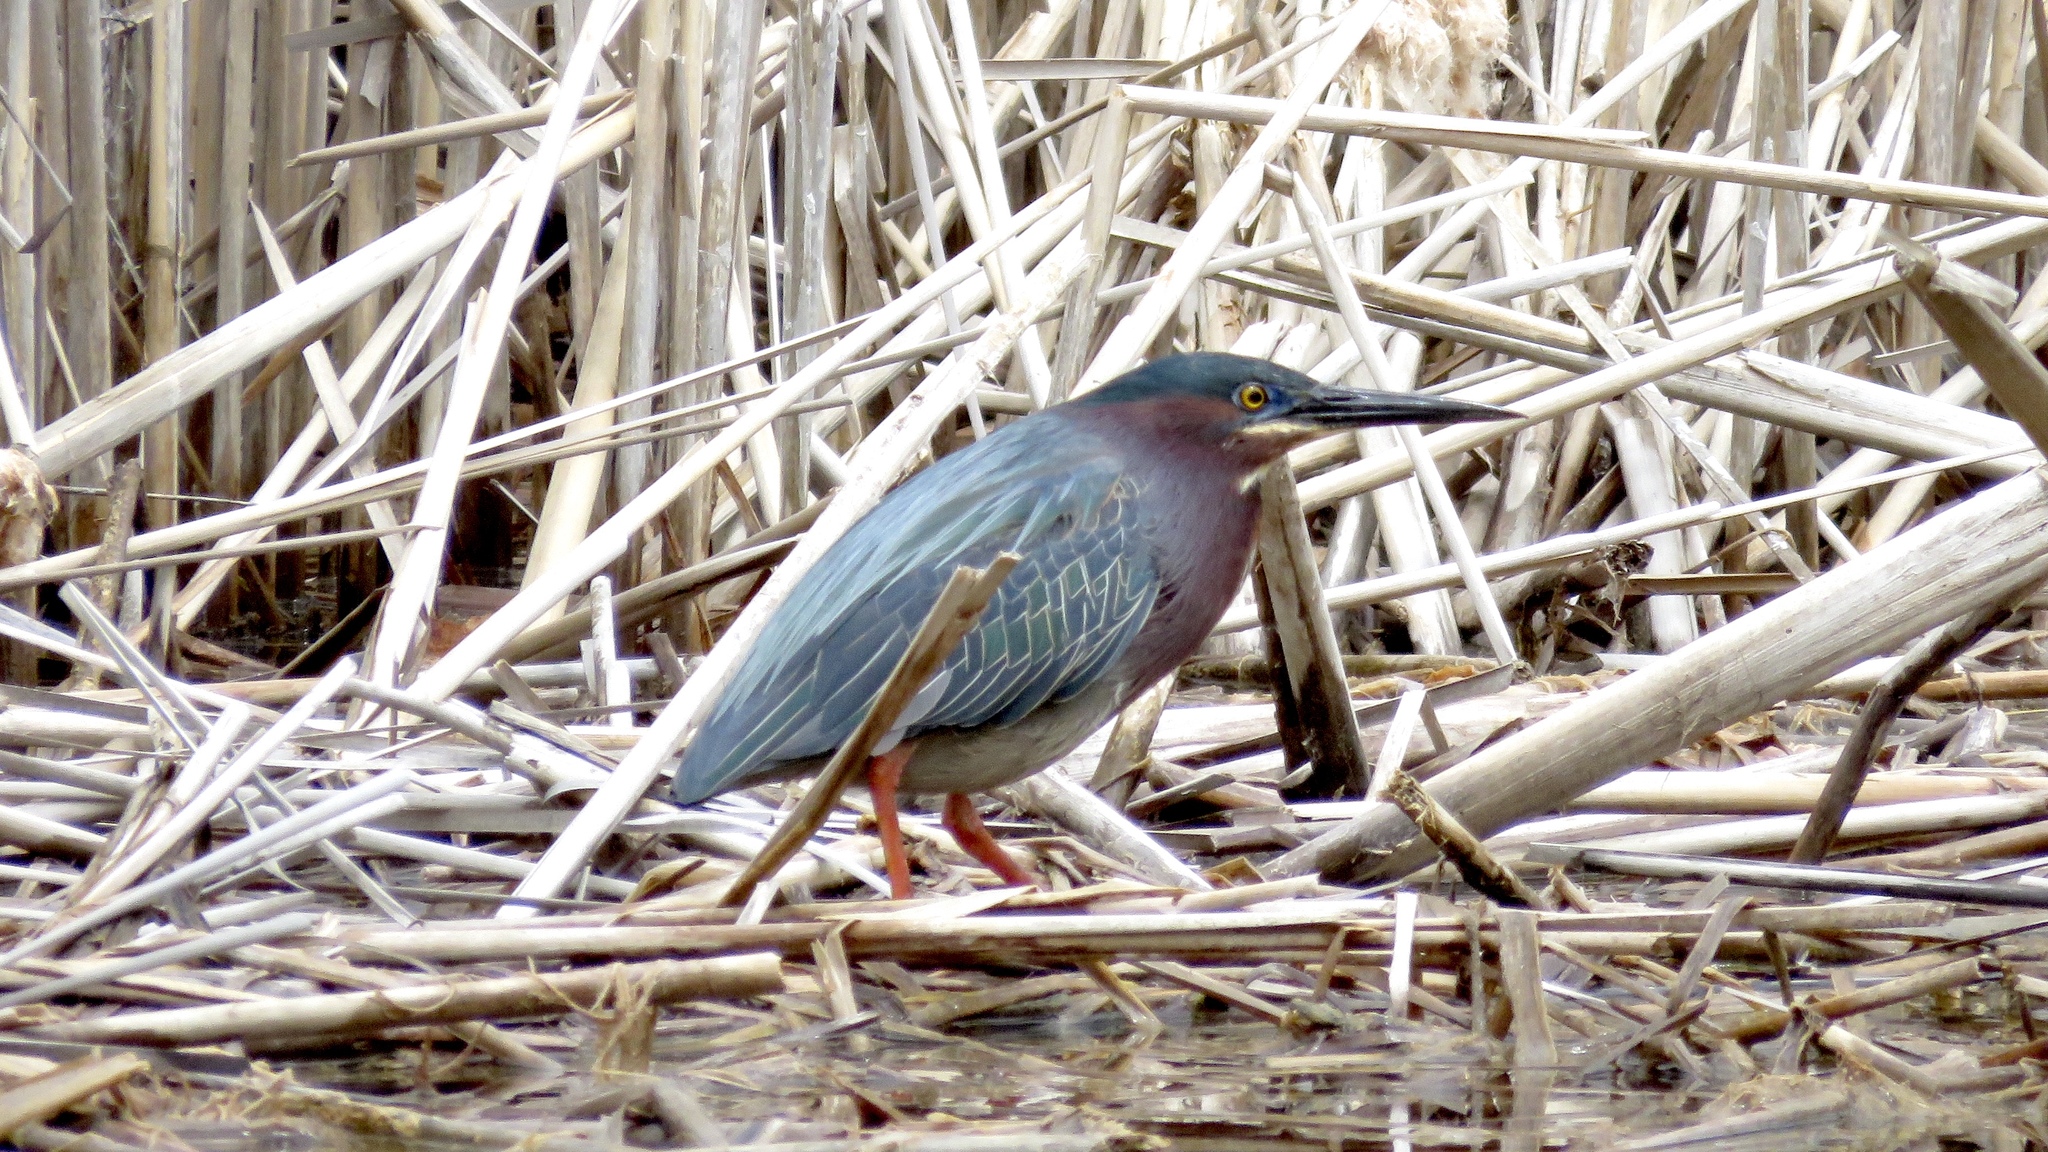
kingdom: Animalia
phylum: Chordata
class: Aves
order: Pelecaniformes
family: Ardeidae
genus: Butorides
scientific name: Butorides virescens
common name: Green heron
